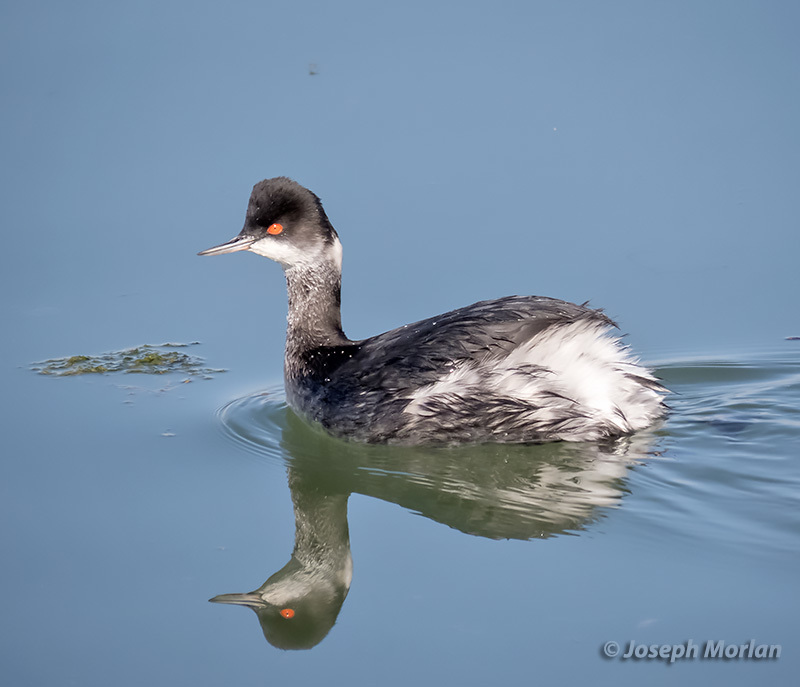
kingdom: Animalia
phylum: Chordata
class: Aves
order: Podicipediformes
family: Podicipedidae
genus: Podiceps
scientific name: Podiceps nigricollis
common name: Black-necked grebe
